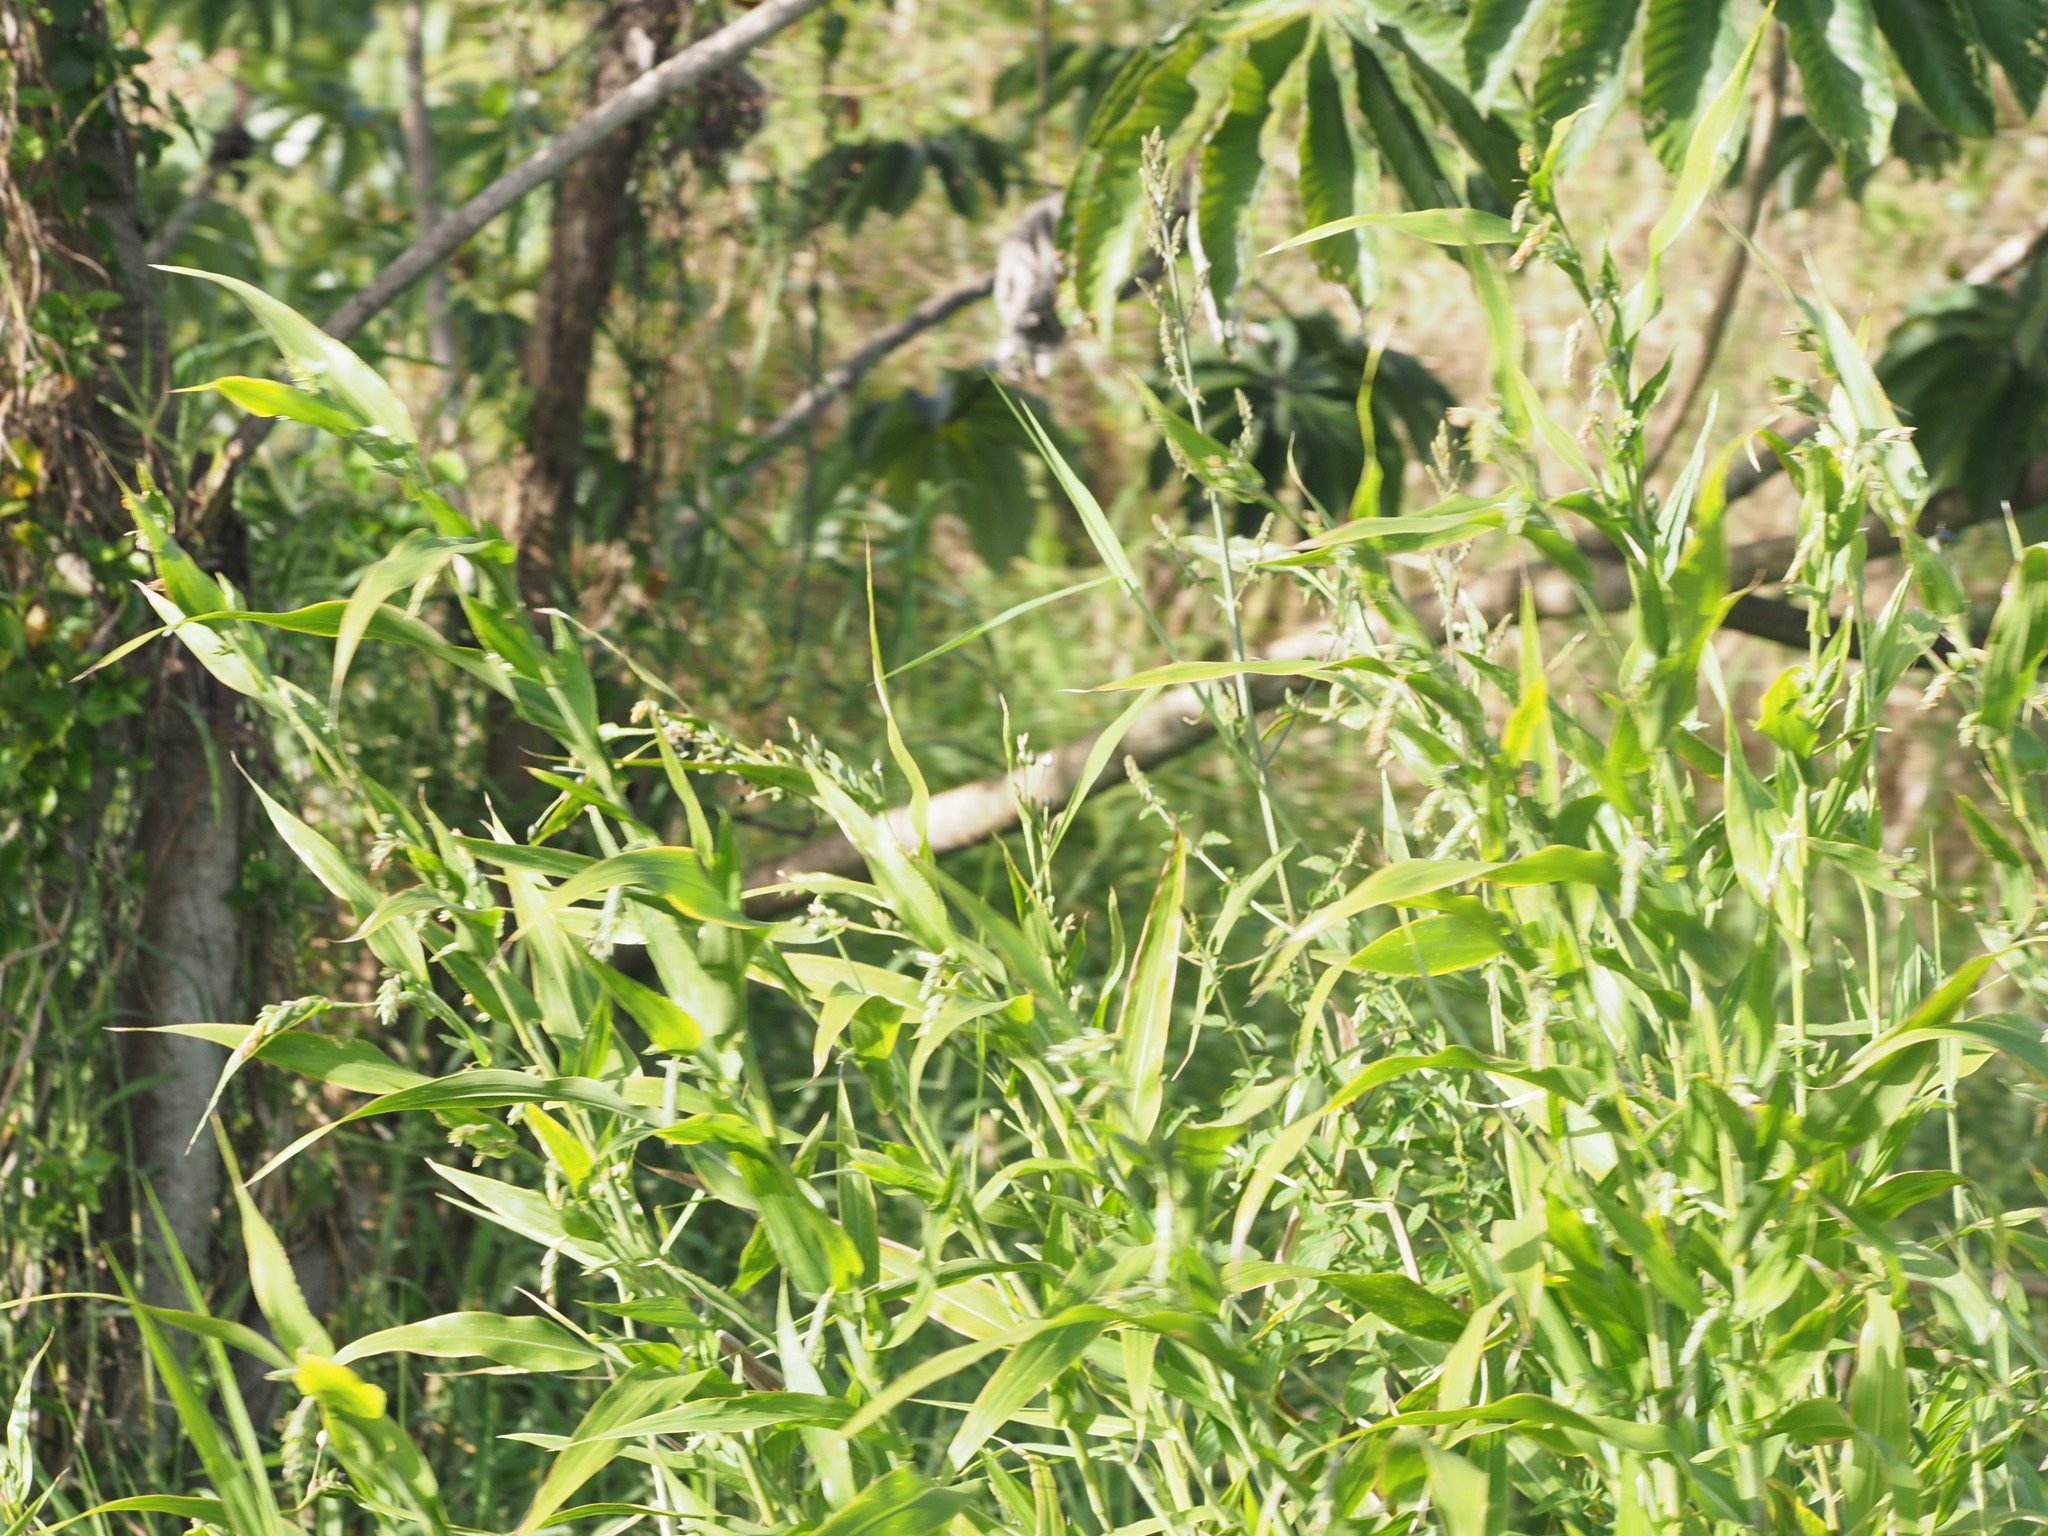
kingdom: Plantae
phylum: Tracheophyta
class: Liliopsida
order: Poales
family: Poaceae
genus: Coix
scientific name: Coix lacryma-jobi
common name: Job's tears
